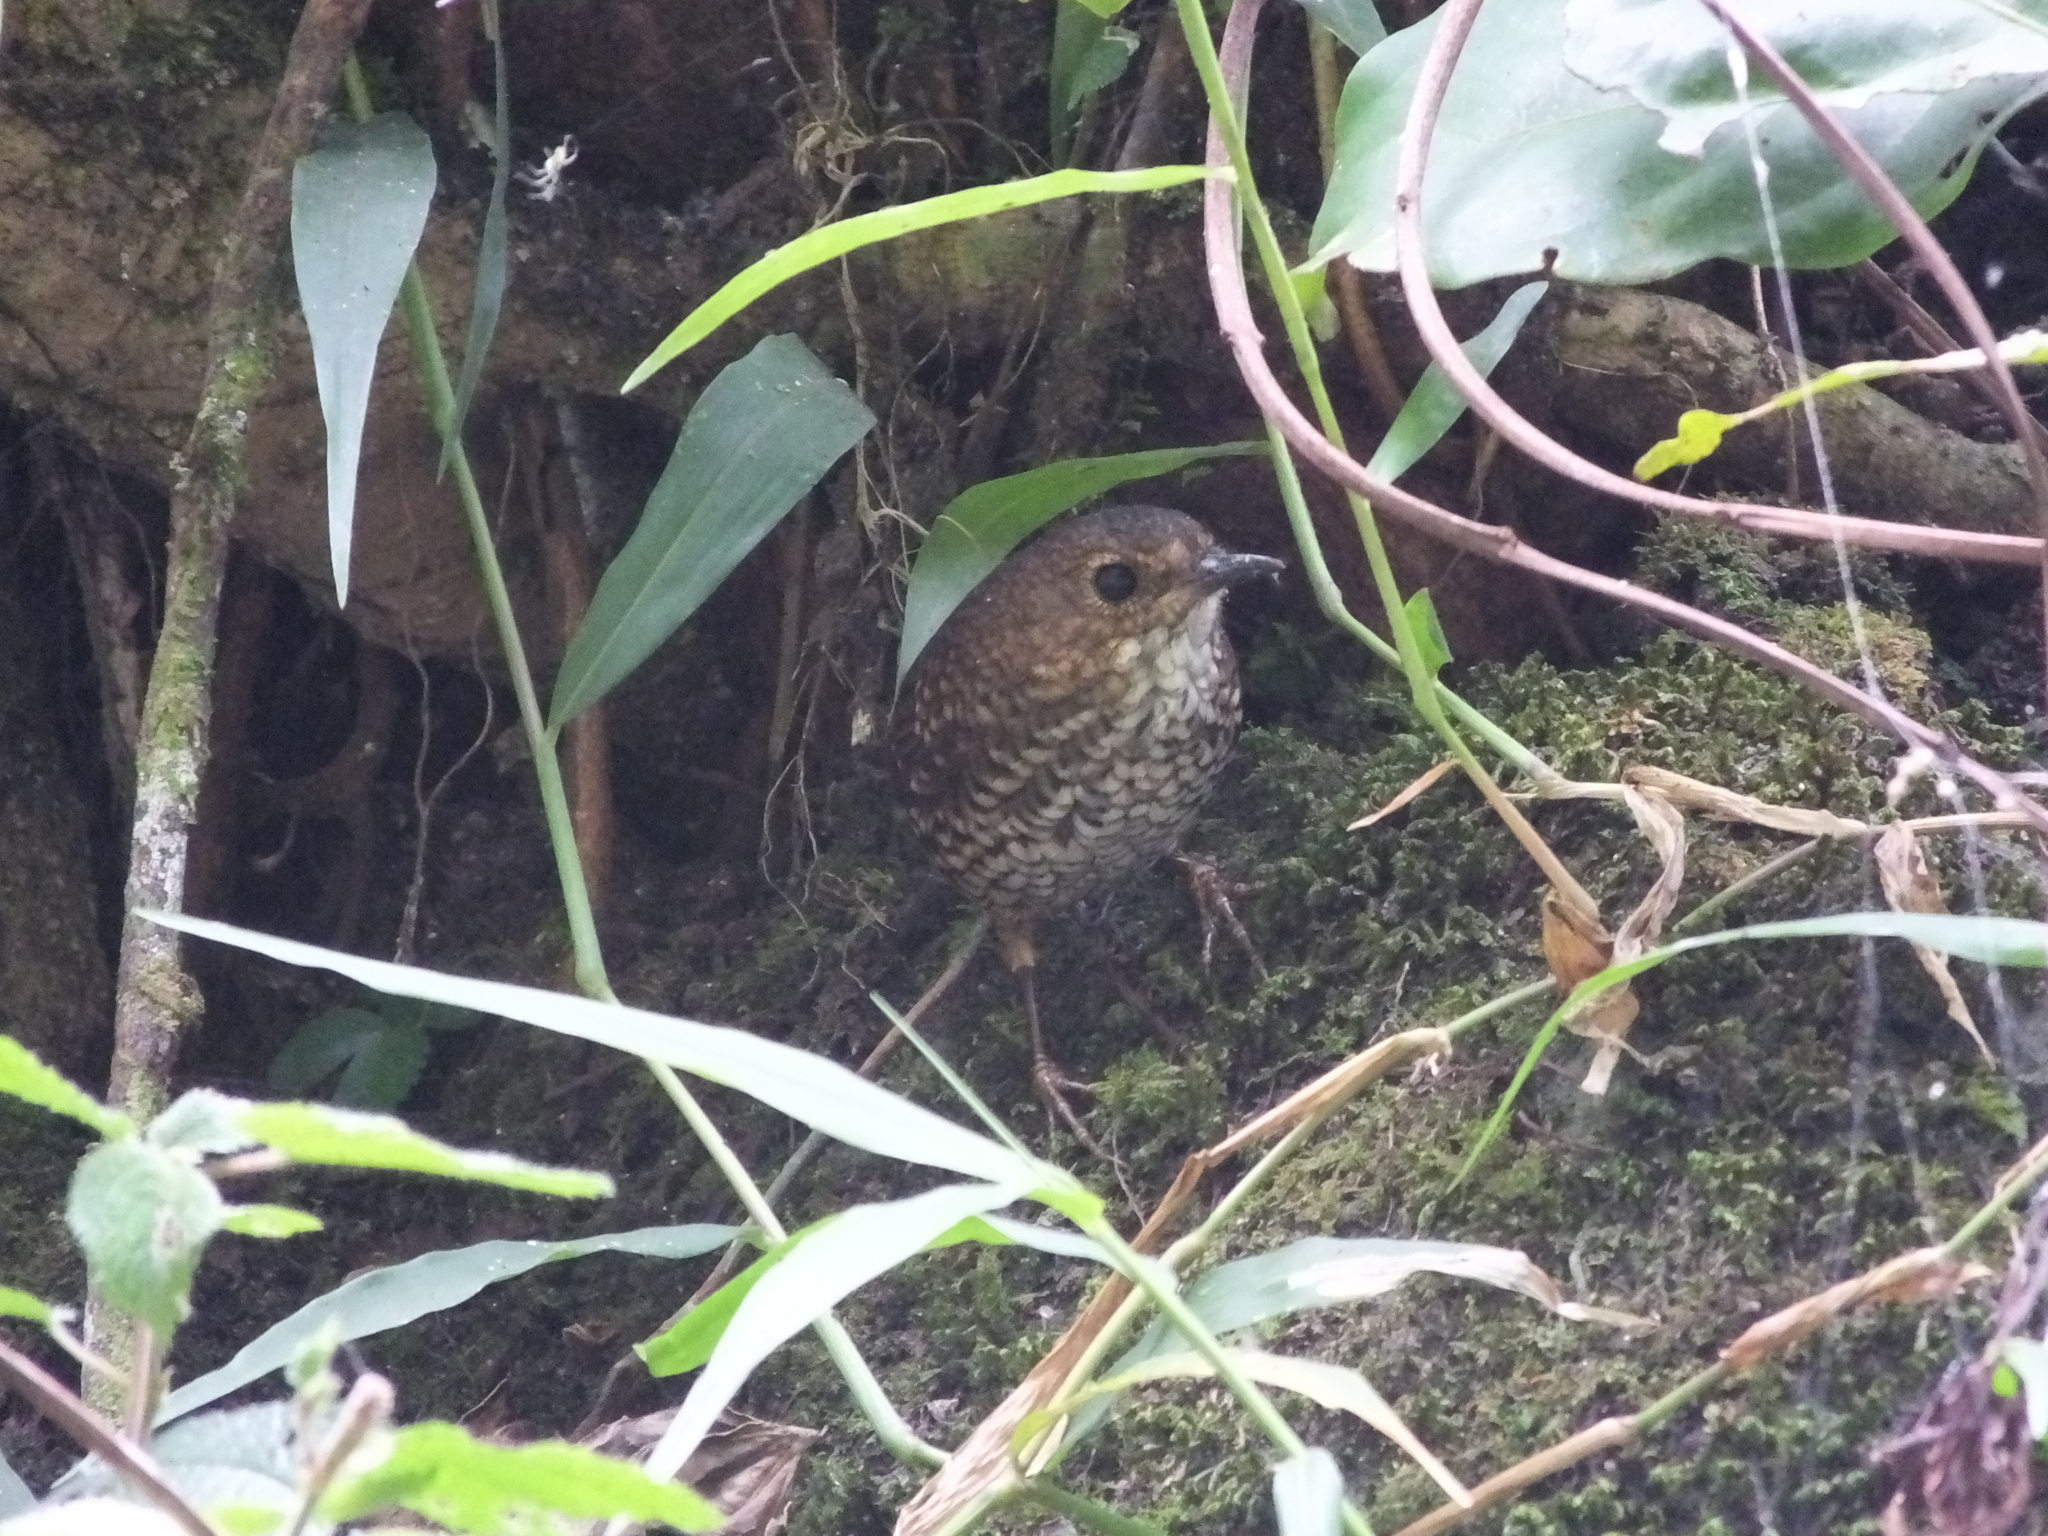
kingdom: Animalia
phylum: Chordata
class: Aves
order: Passeriformes
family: Pnoepygidae
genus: Pnoepyga
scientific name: Pnoepyga pusilla
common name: Pygmy wren-babbler
